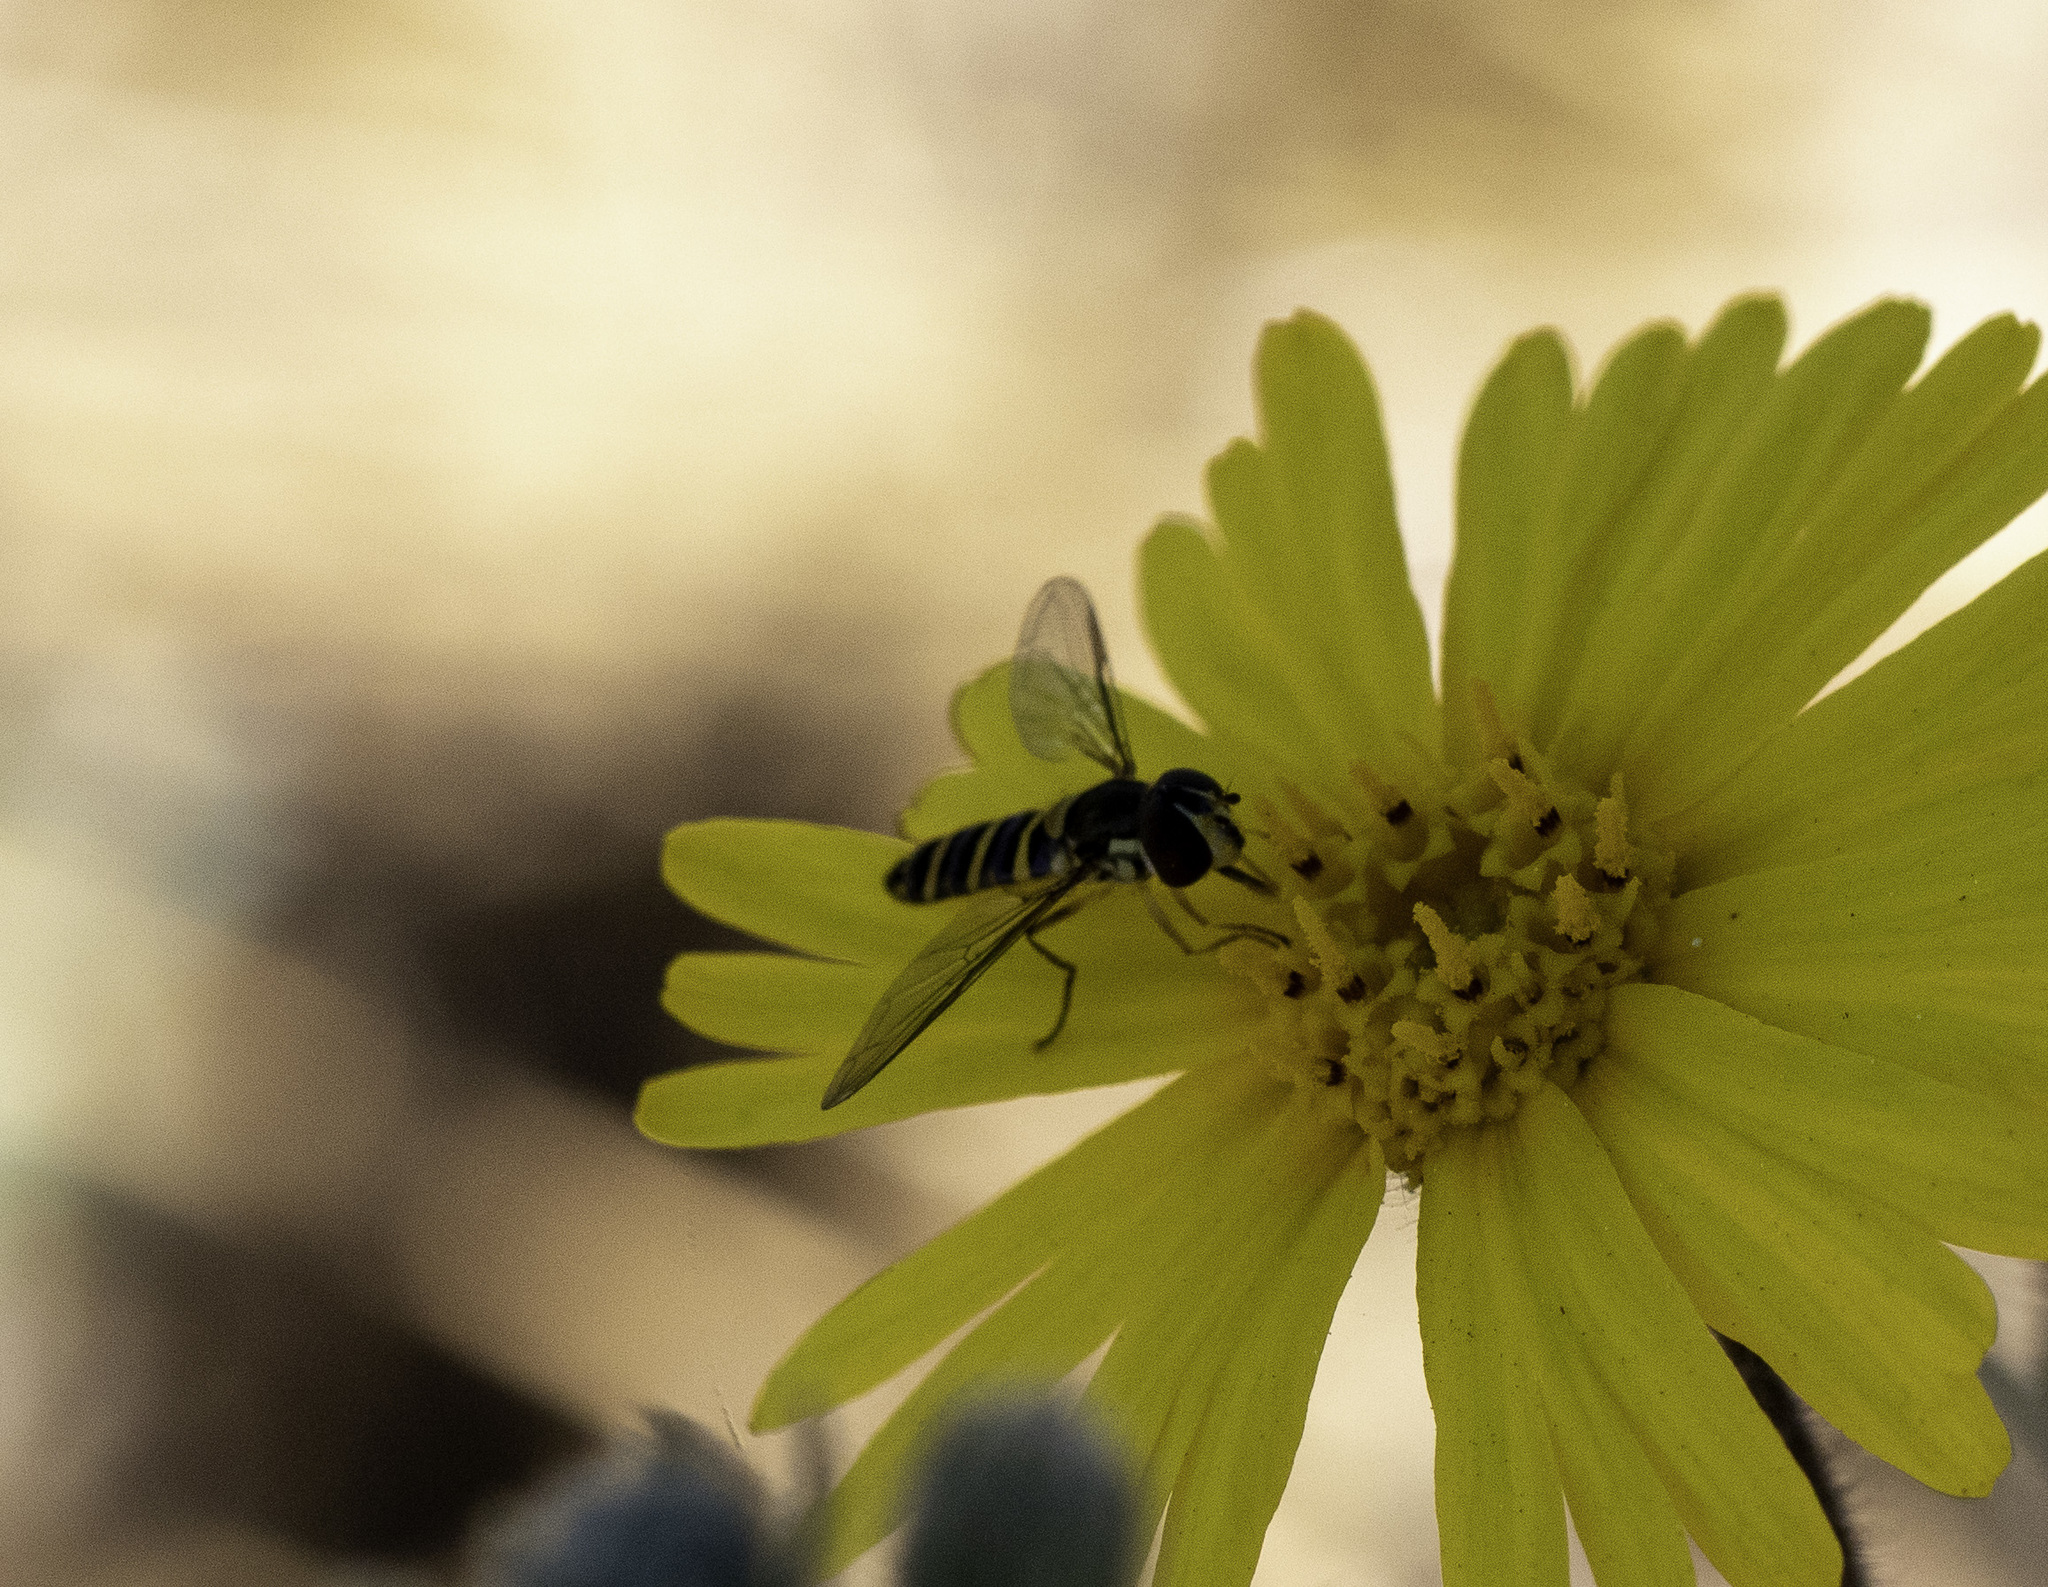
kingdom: Animalia
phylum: Arthropoda
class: Insecta
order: Diptera
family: Syrphidae
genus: Fazia
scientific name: Fazia micrura
